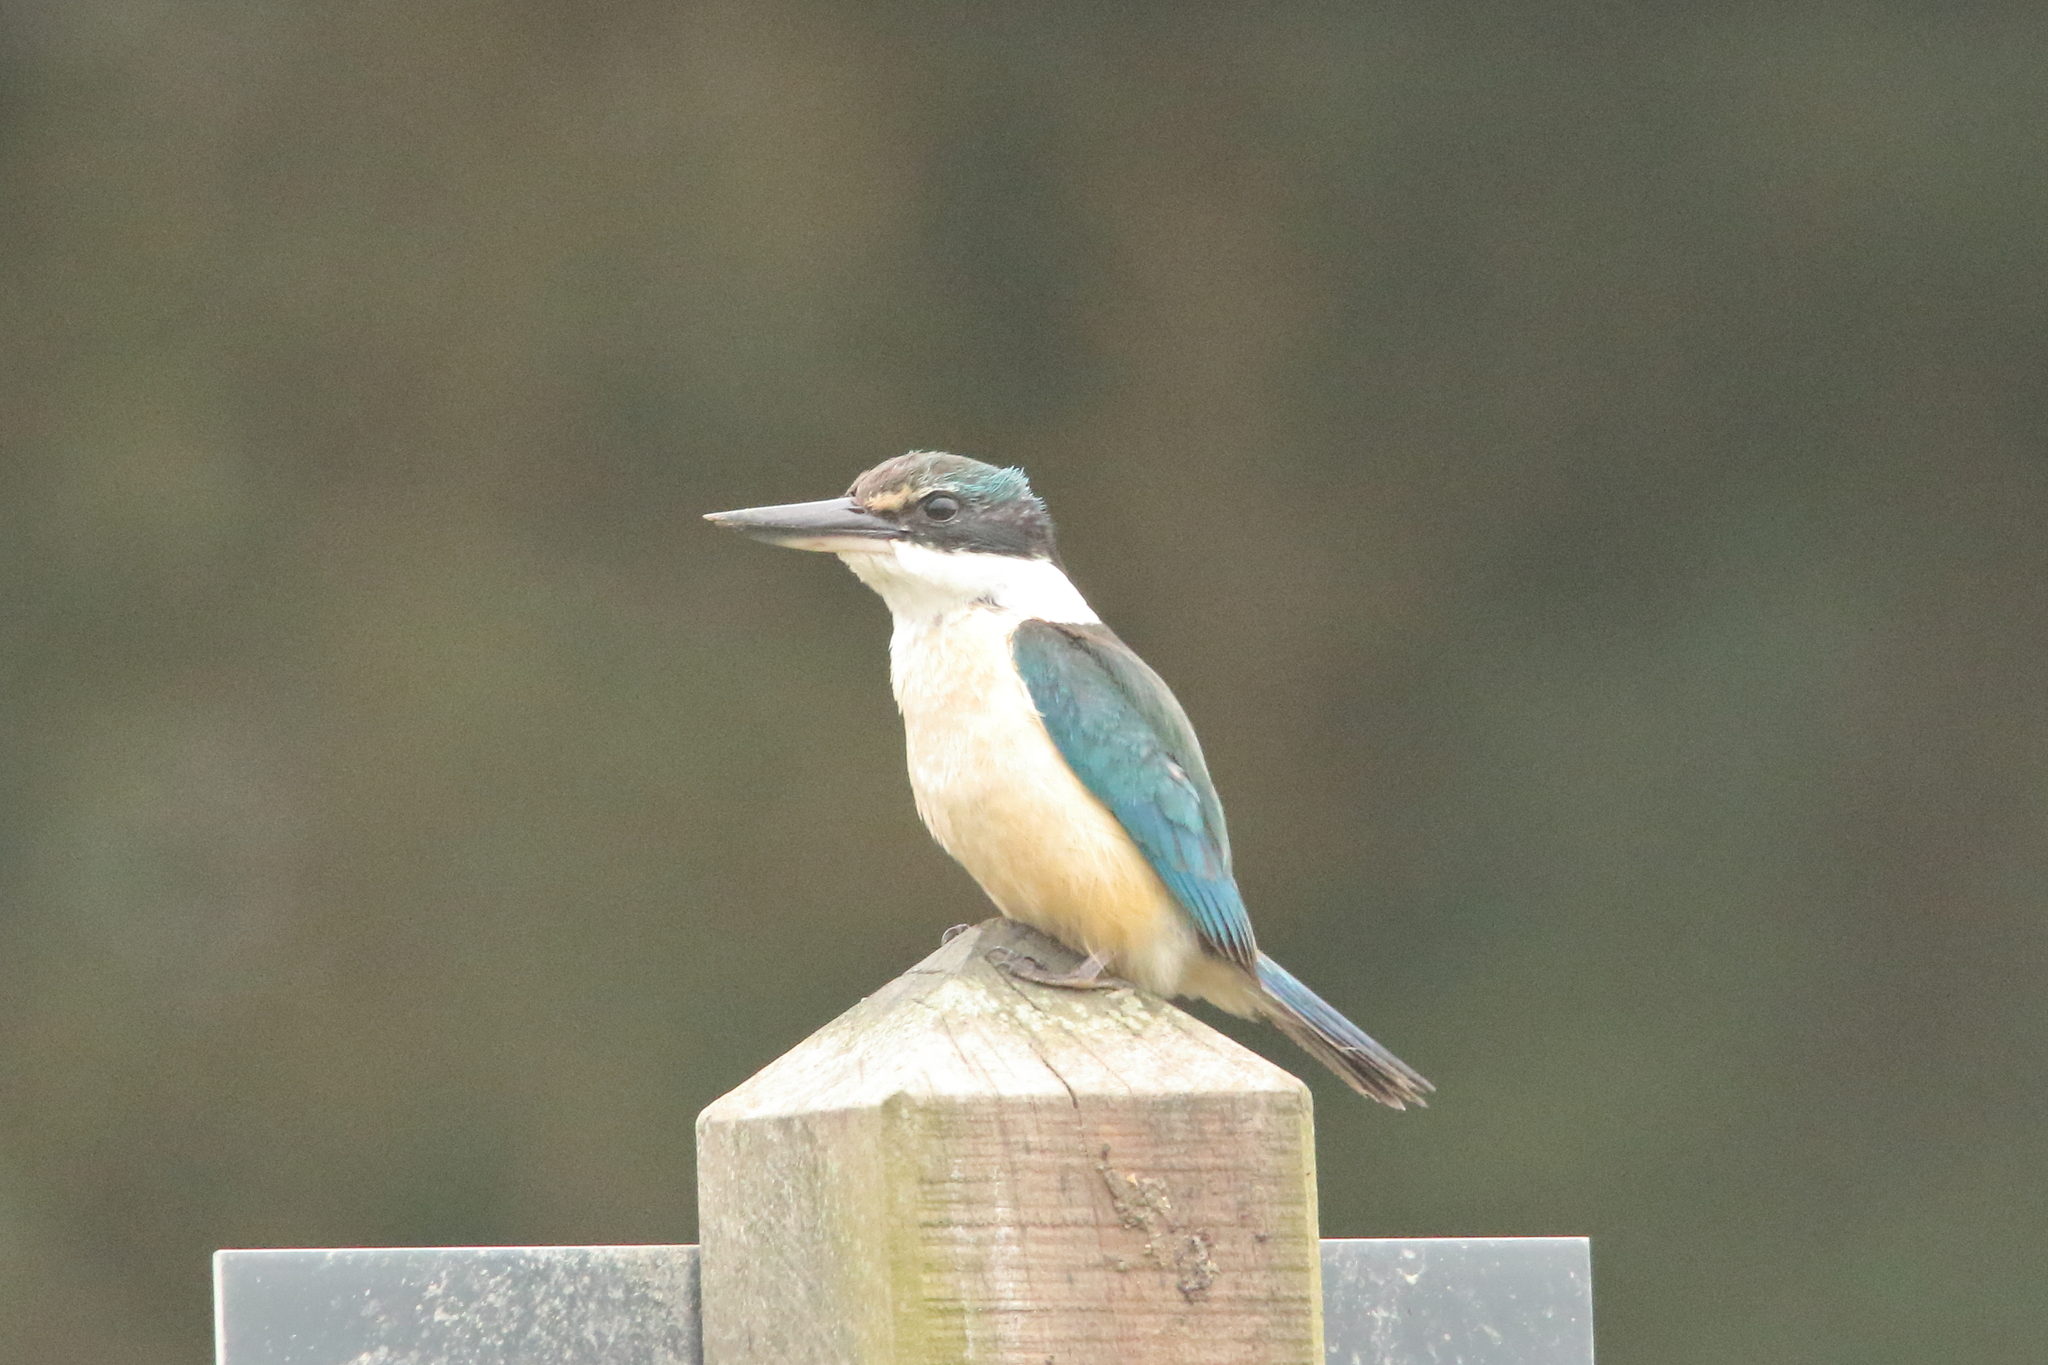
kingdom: Animalia
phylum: Chordata
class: Aves
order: Coraciiformes
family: Alcedinidae
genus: Todiramphus
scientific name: Todiramphus sanctus
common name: Sacred kingfisher
